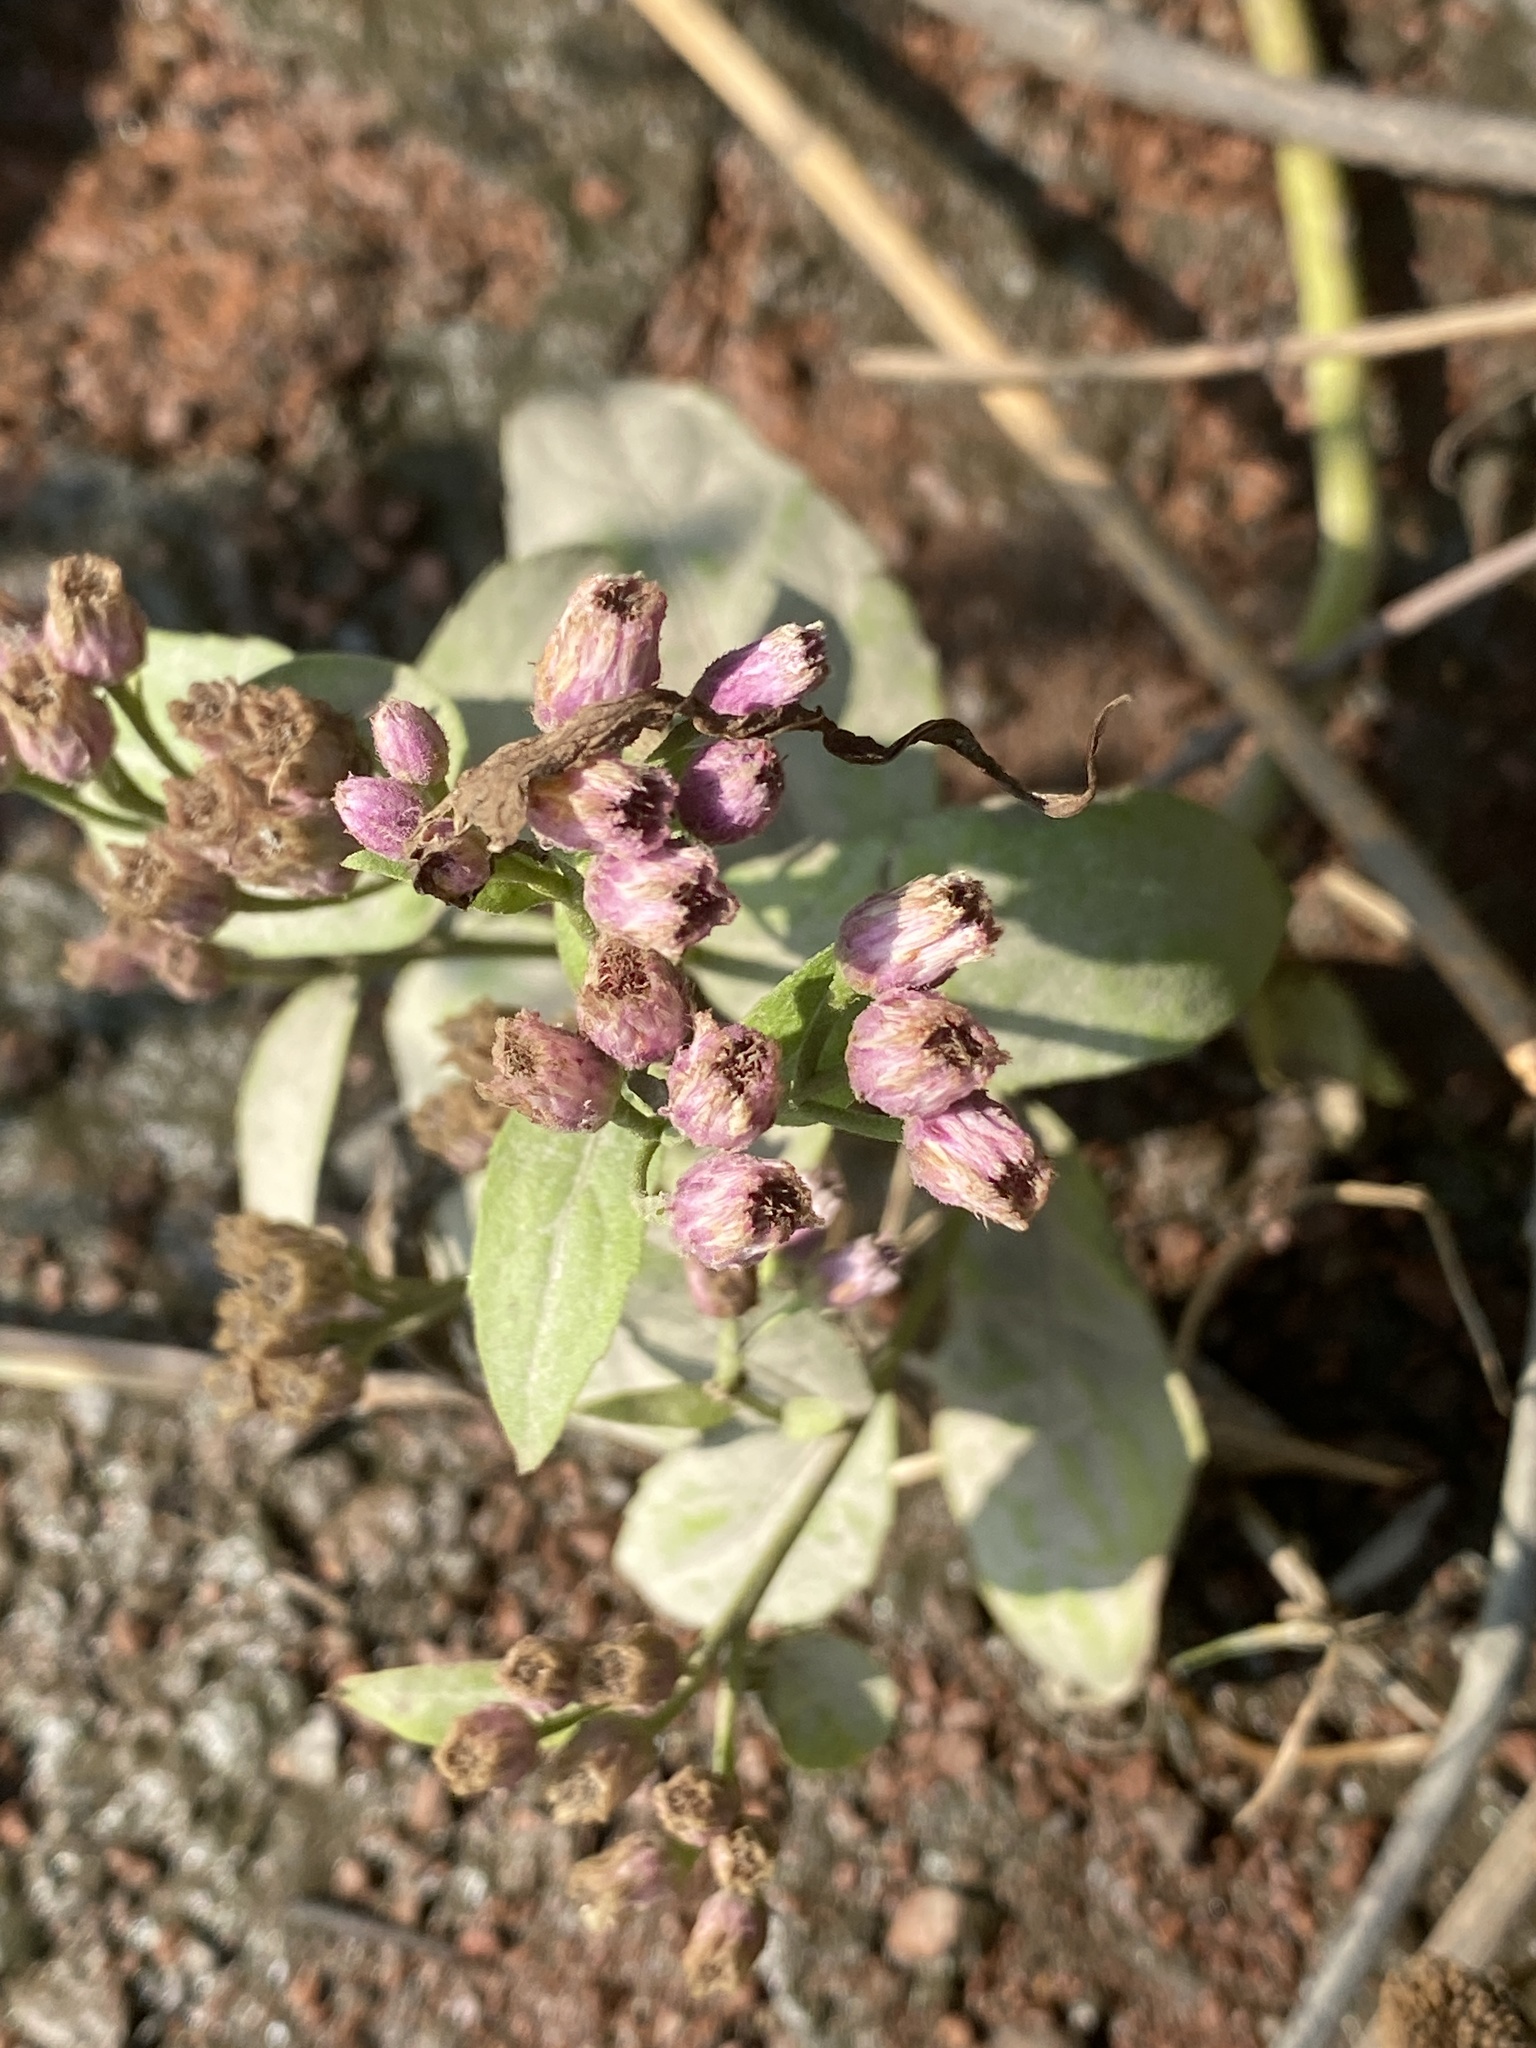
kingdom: Plantae
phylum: Tracheophyta
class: Magnoliopsida
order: Asterales
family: Asteraceae
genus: Pluchea
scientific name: Pluchea odorata
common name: Saltmarsh fleabane
